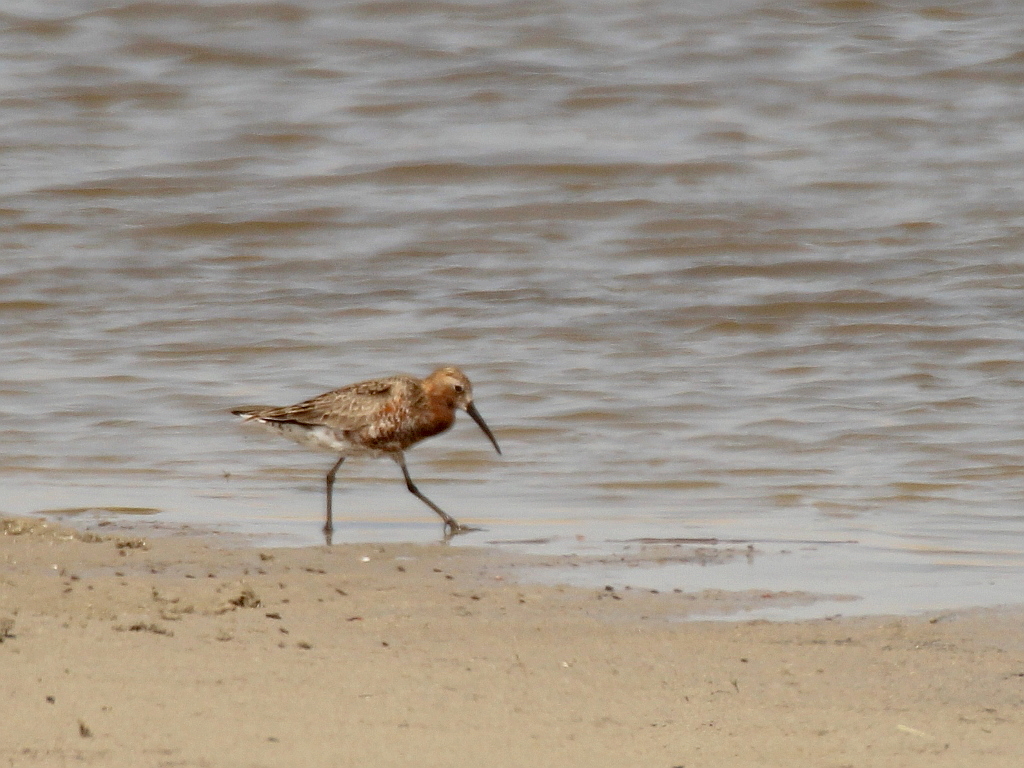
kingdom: Animalia
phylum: Chordata
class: Aves
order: Charadriiformes
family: Scolopacidae
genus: Calidris
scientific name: Calidris ferruginea
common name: Curlew sandpiper
